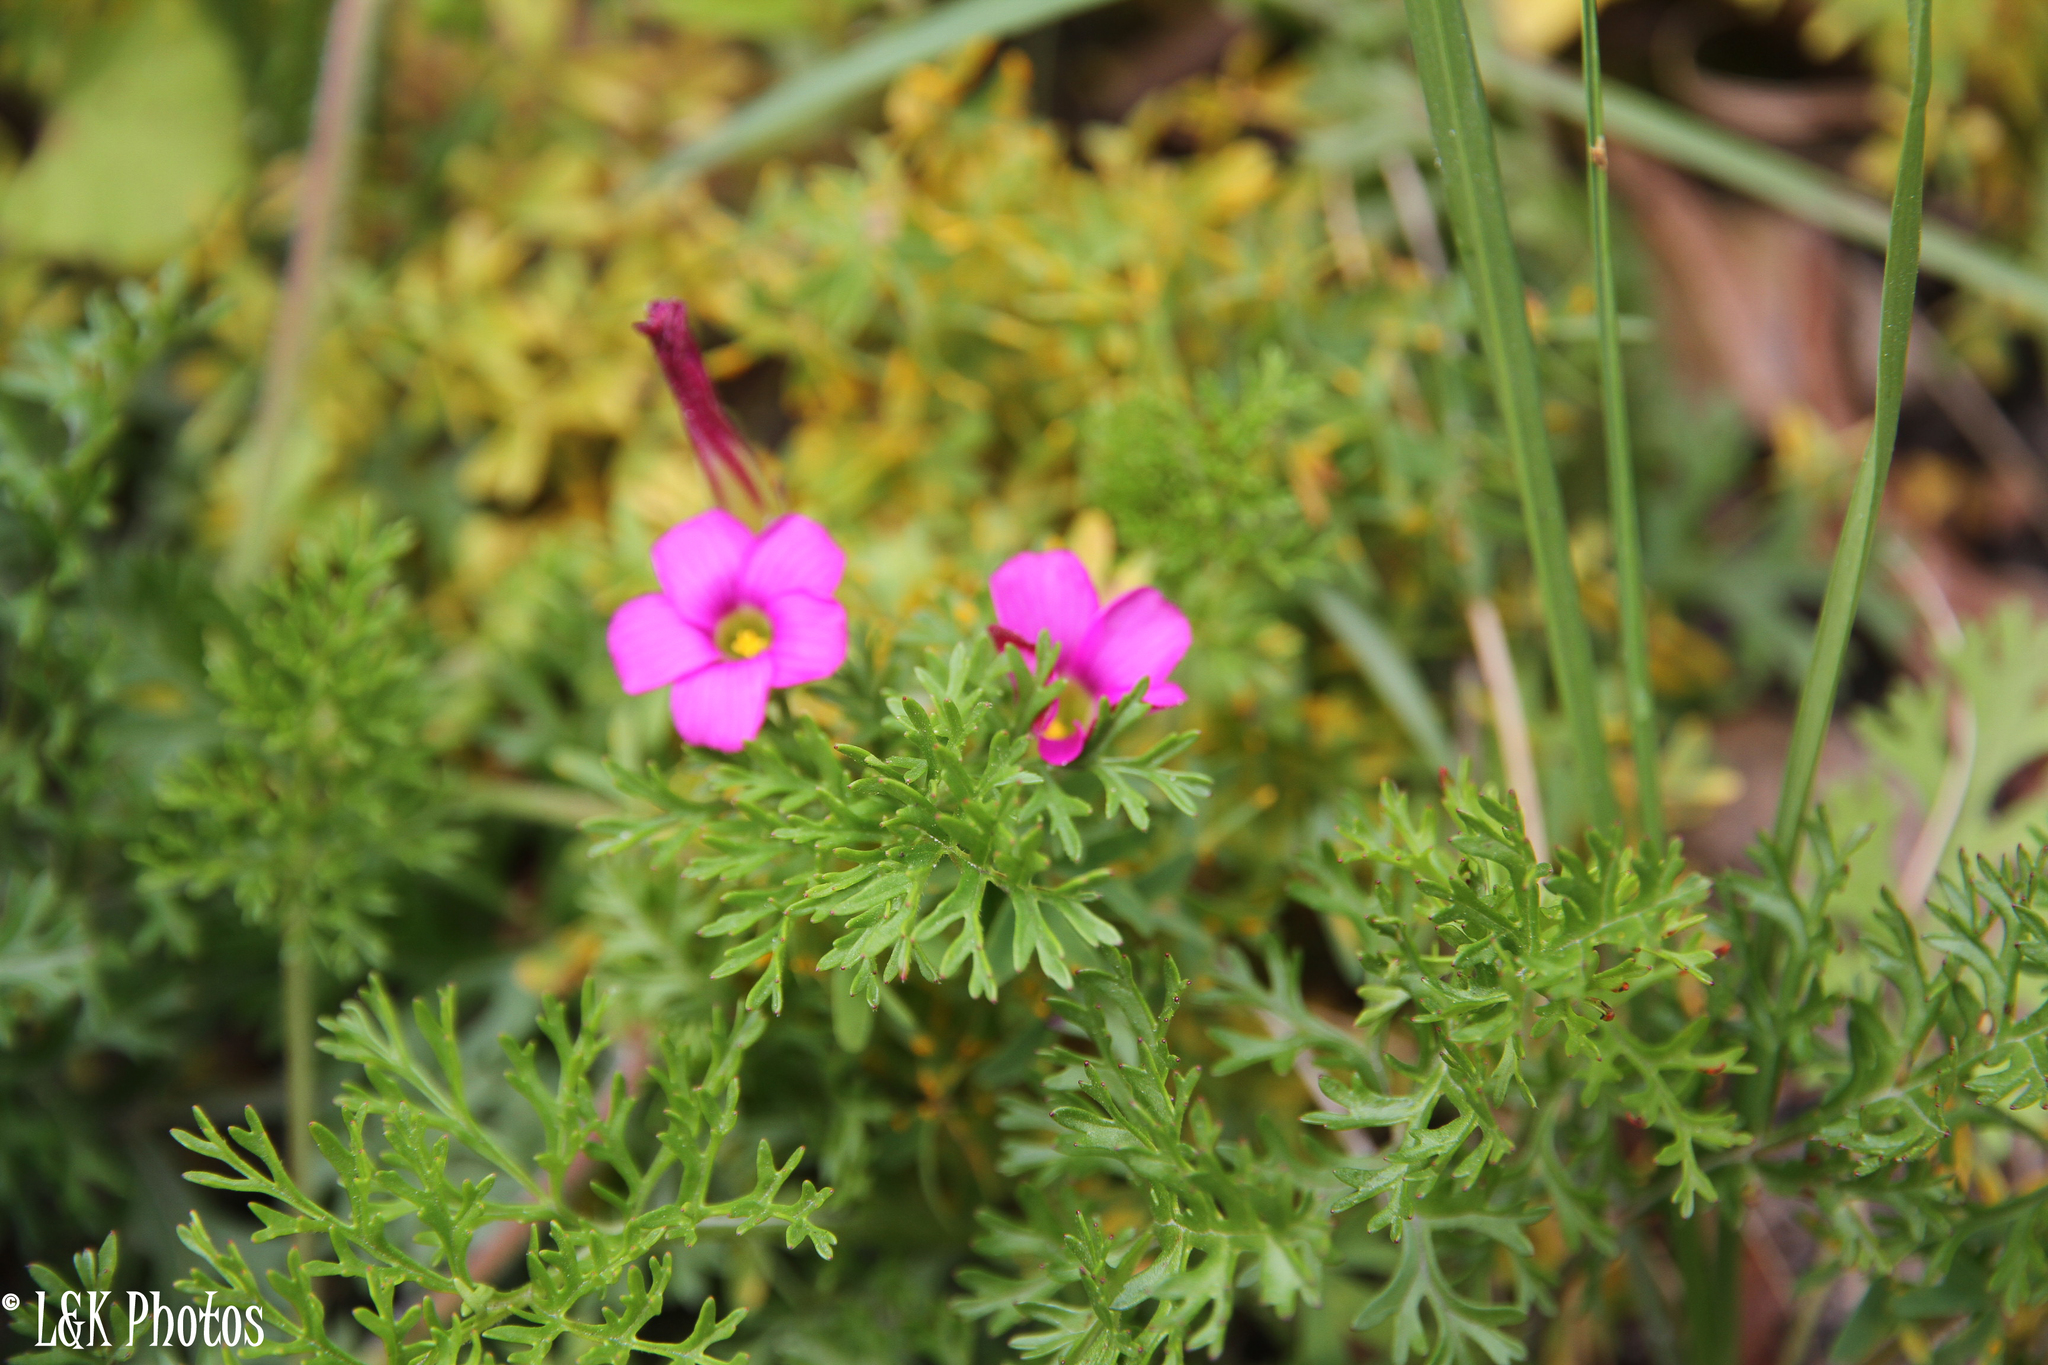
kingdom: Plantae
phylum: Tracheophyta
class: Magnoliopsida
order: Oxalidales
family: Oxalidaceae
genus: Oxalis
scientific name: Oxalis heterophylla
